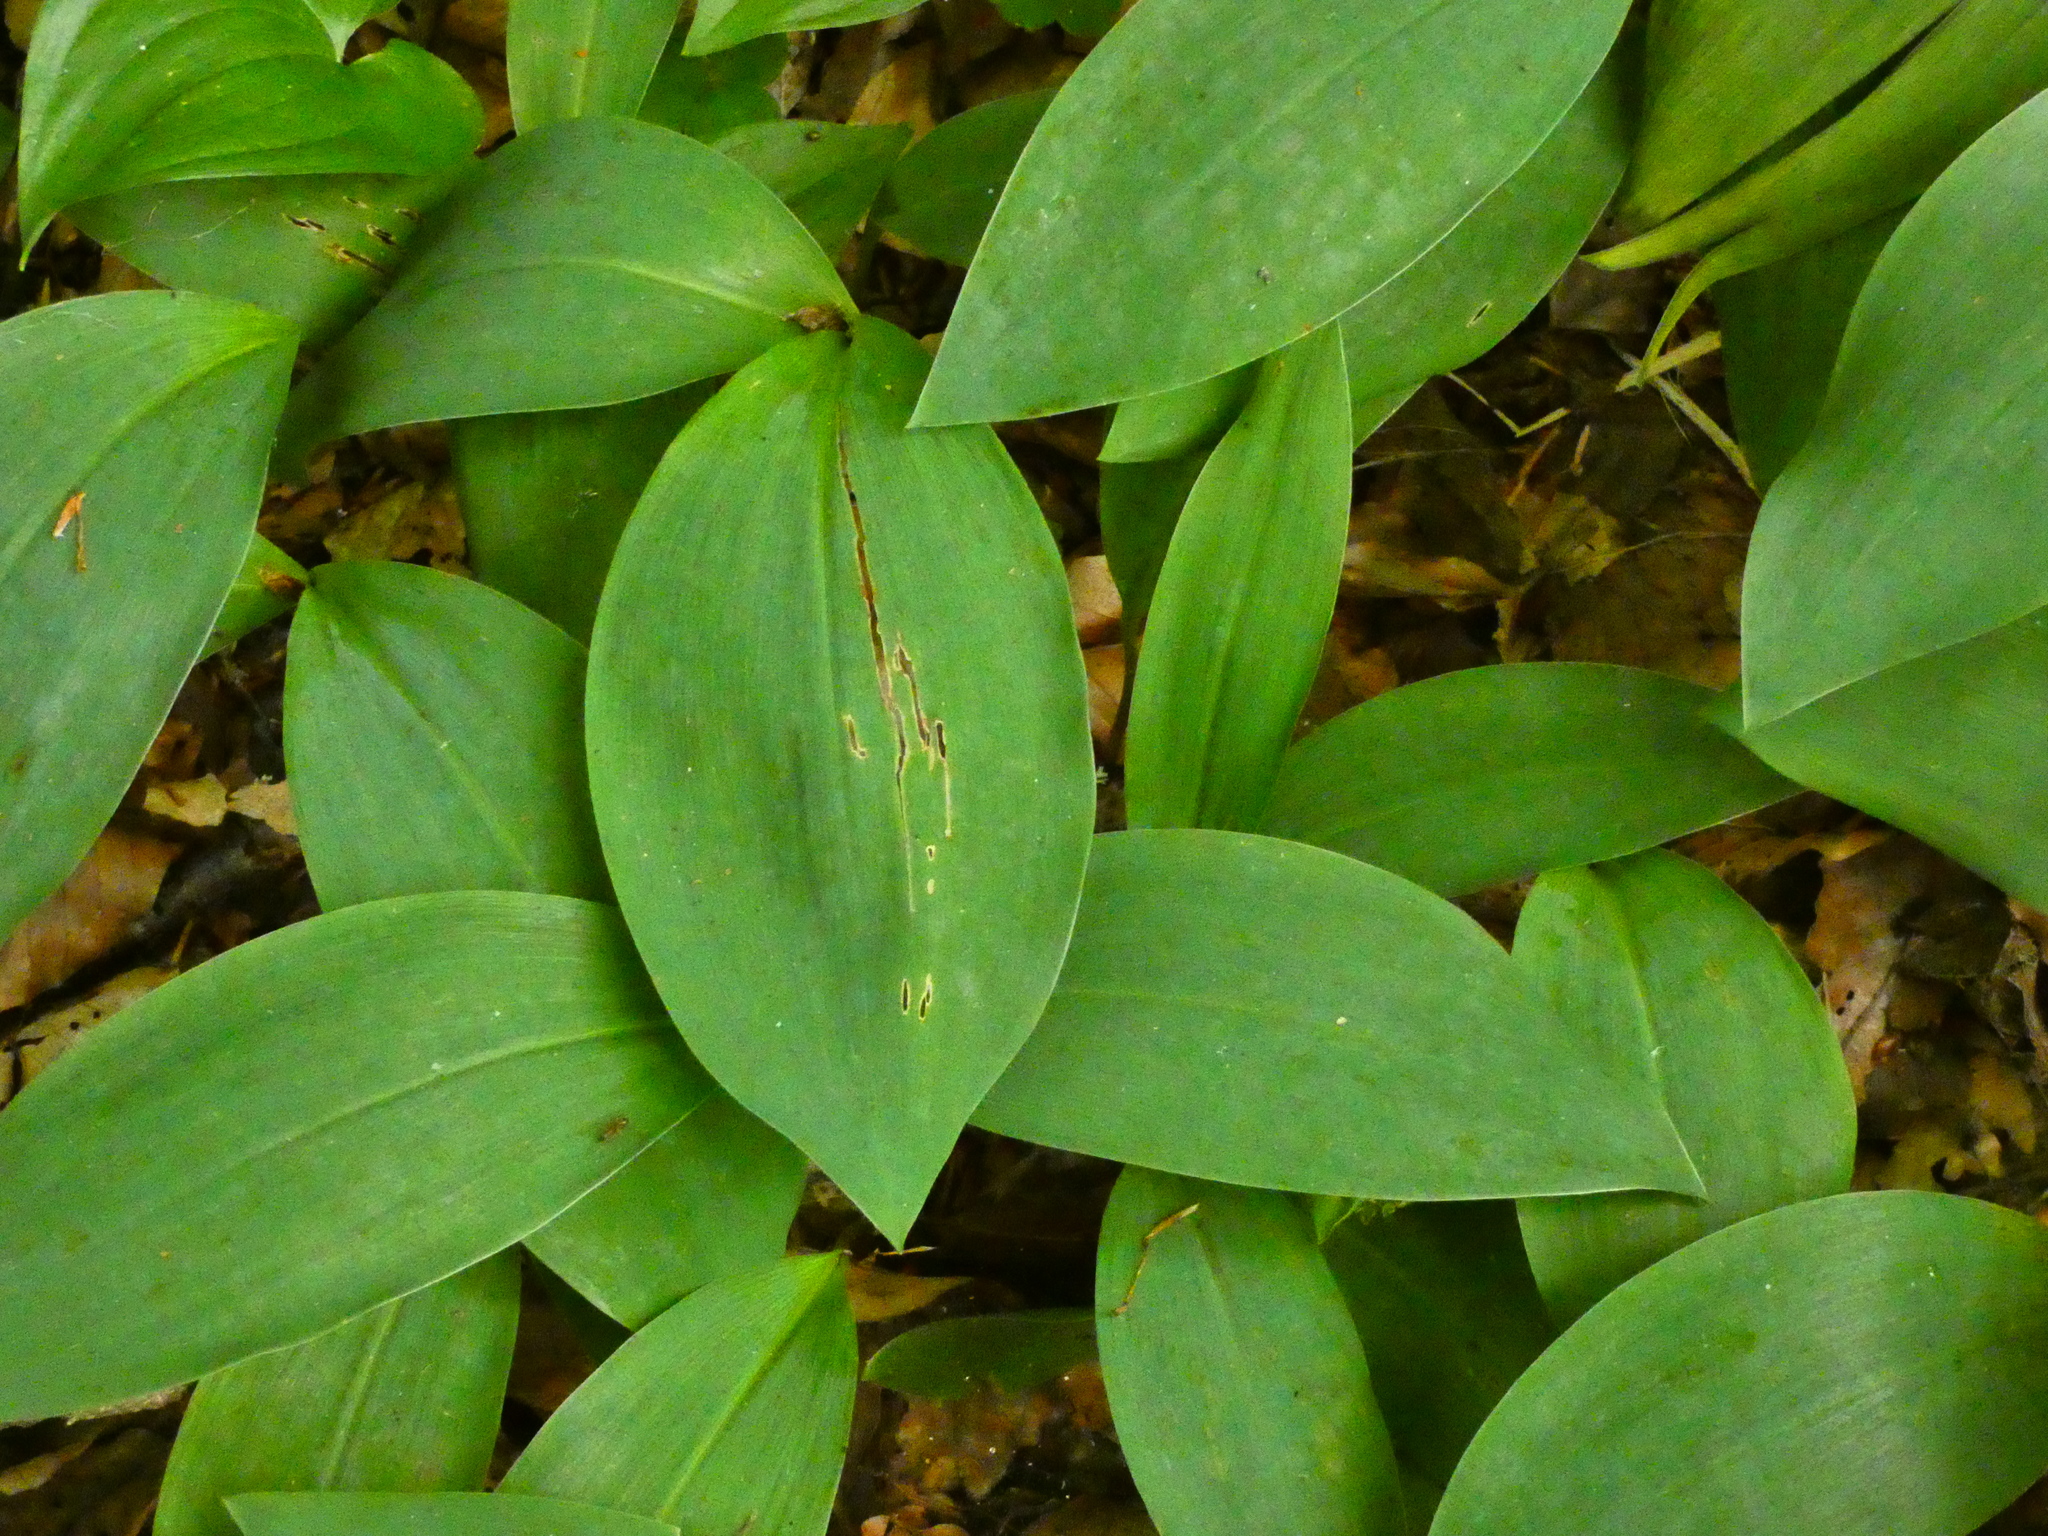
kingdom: Plantae
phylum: Tracheophyta
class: Liliopsida
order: Asparagales
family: Asparagaceae
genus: Convallaria
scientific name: Convallaria majalis
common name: Lily-of-the-valley
